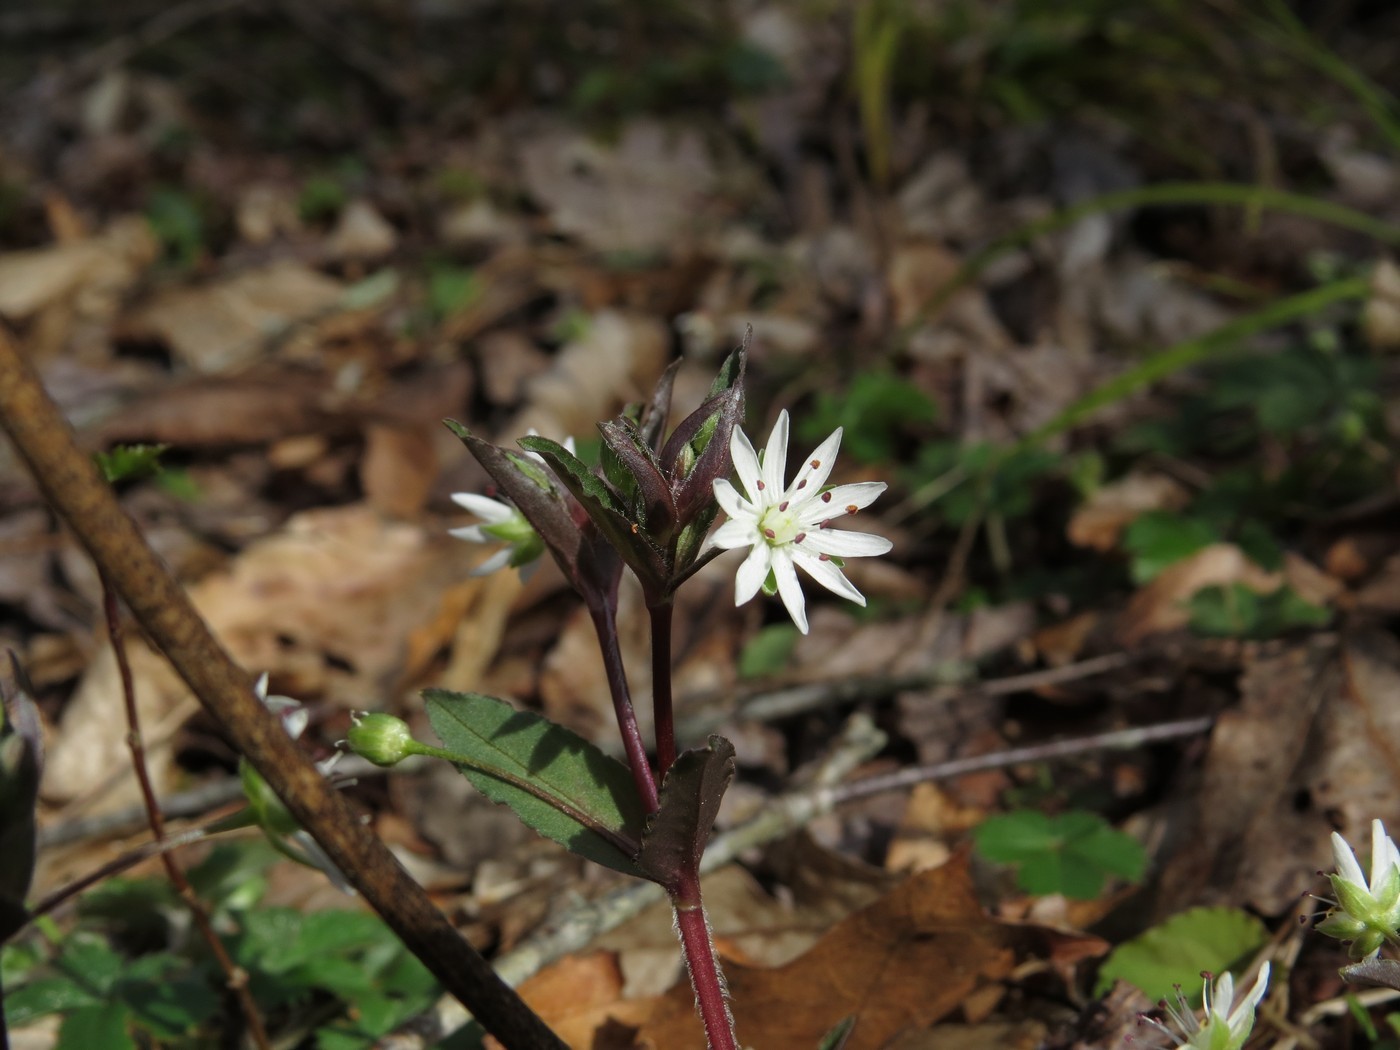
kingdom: Plantae
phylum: Tracheophyta
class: Magnoliopsida
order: Caryophyllales
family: Caryophyllaceae
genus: Stellaria
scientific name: Stellaria pubera
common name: Star chickweed
